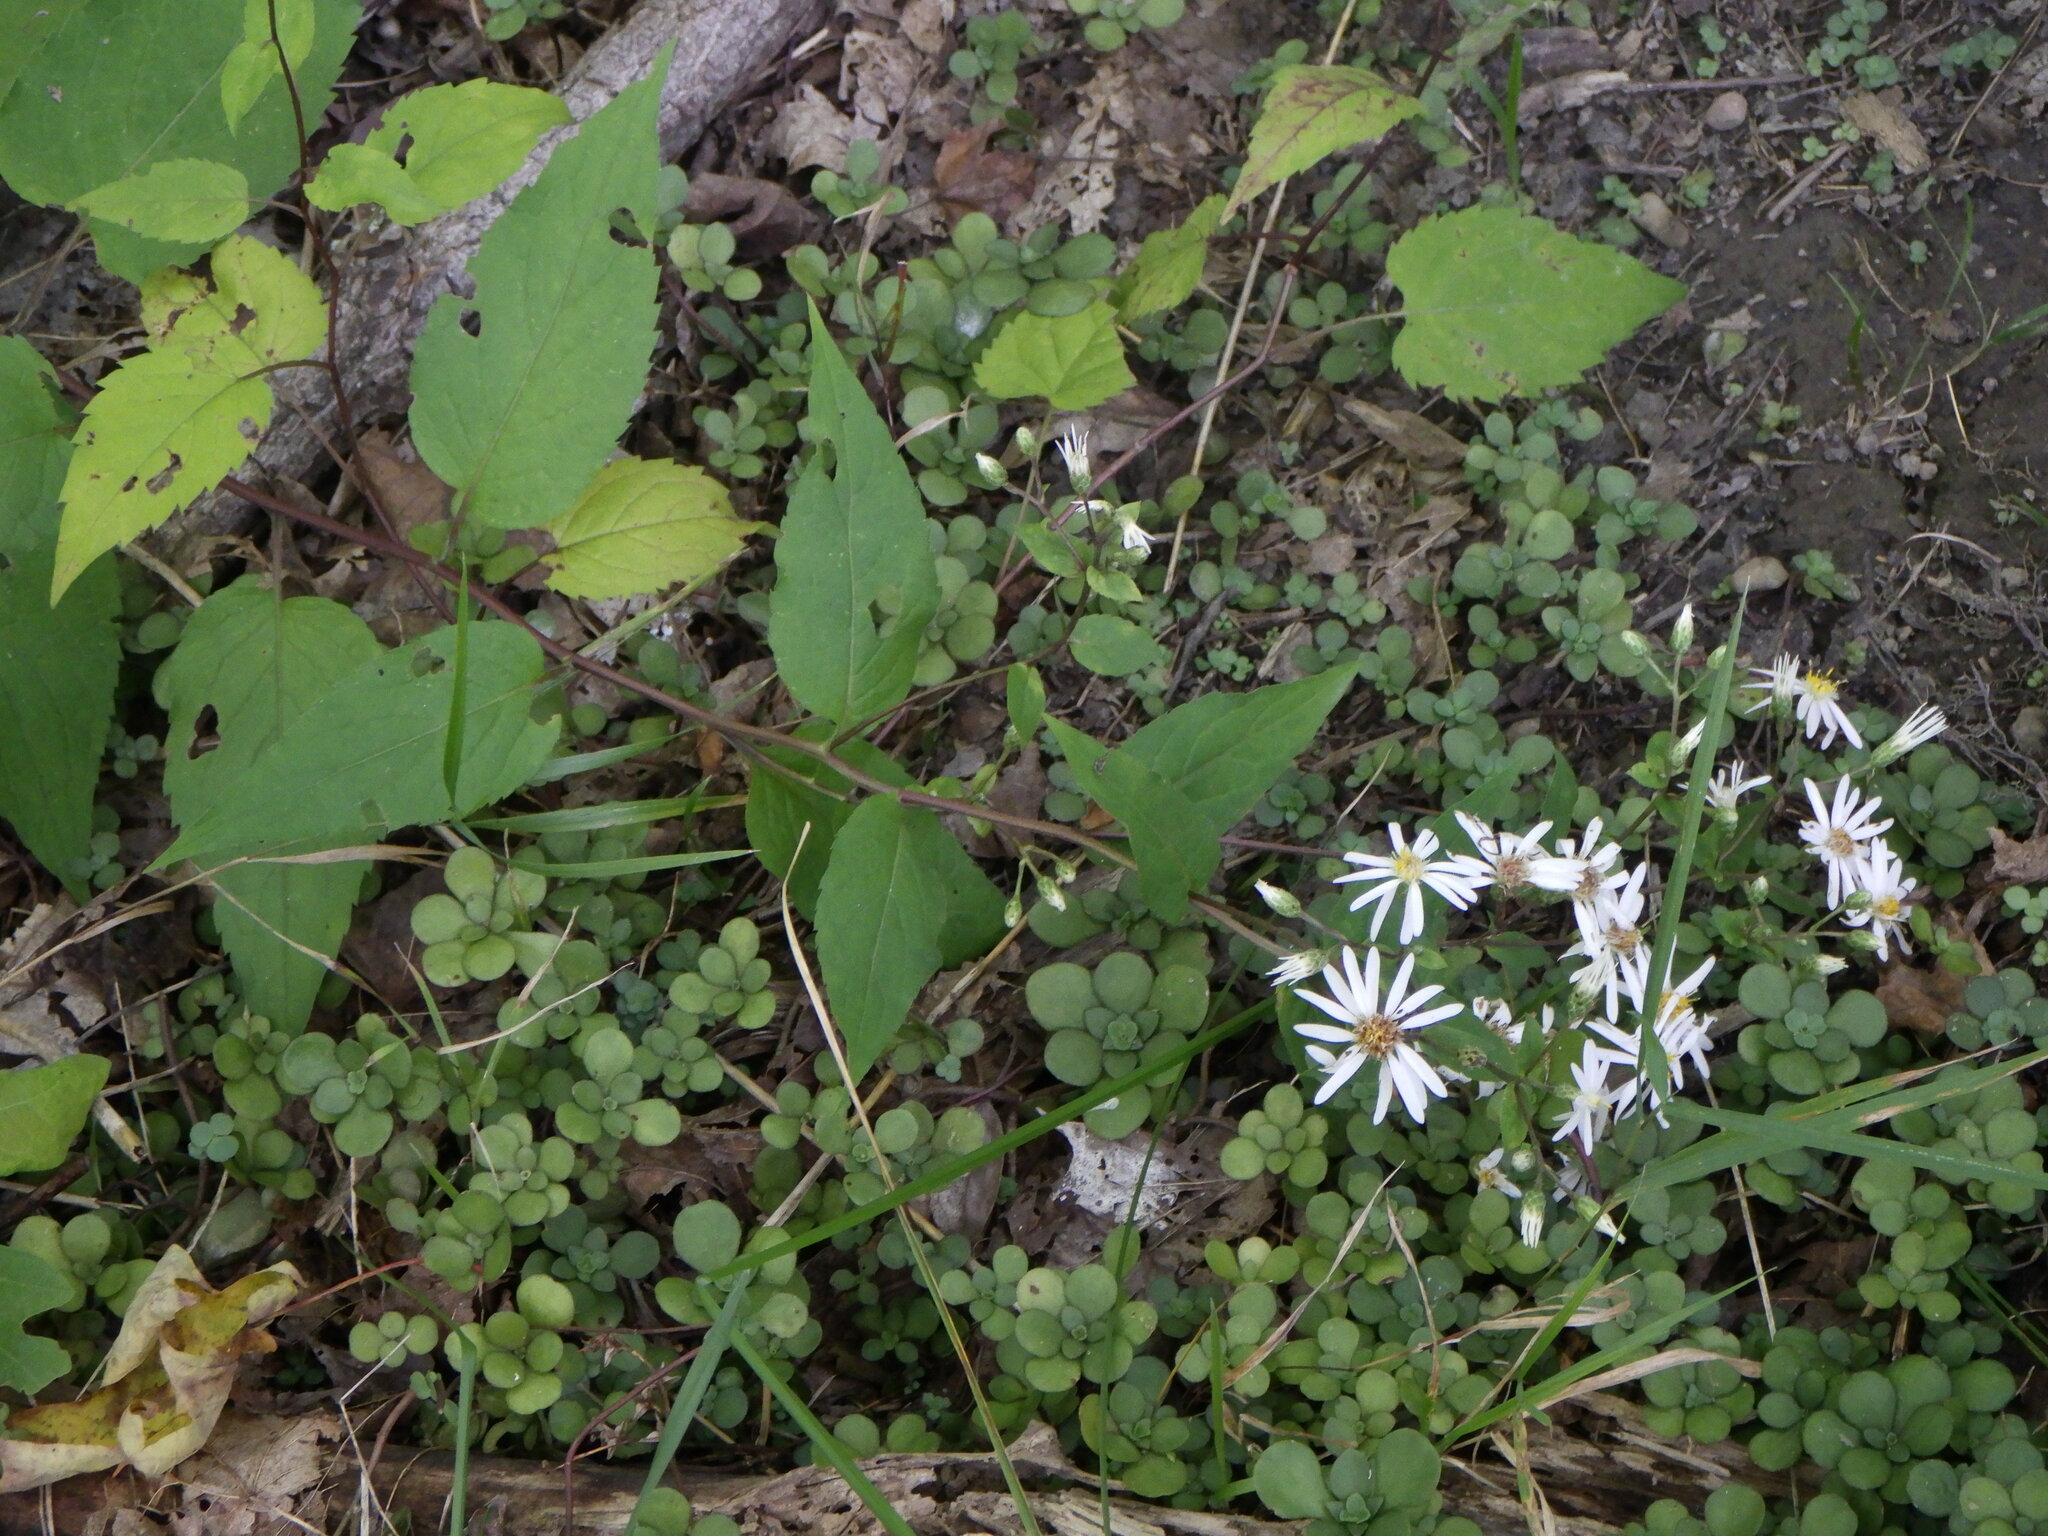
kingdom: Plantae
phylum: Tracheophyta
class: Magnoliopsida
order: Asterales
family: Asteraceae
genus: Eurybia
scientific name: Eurybia divaricata
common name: White wood aster
